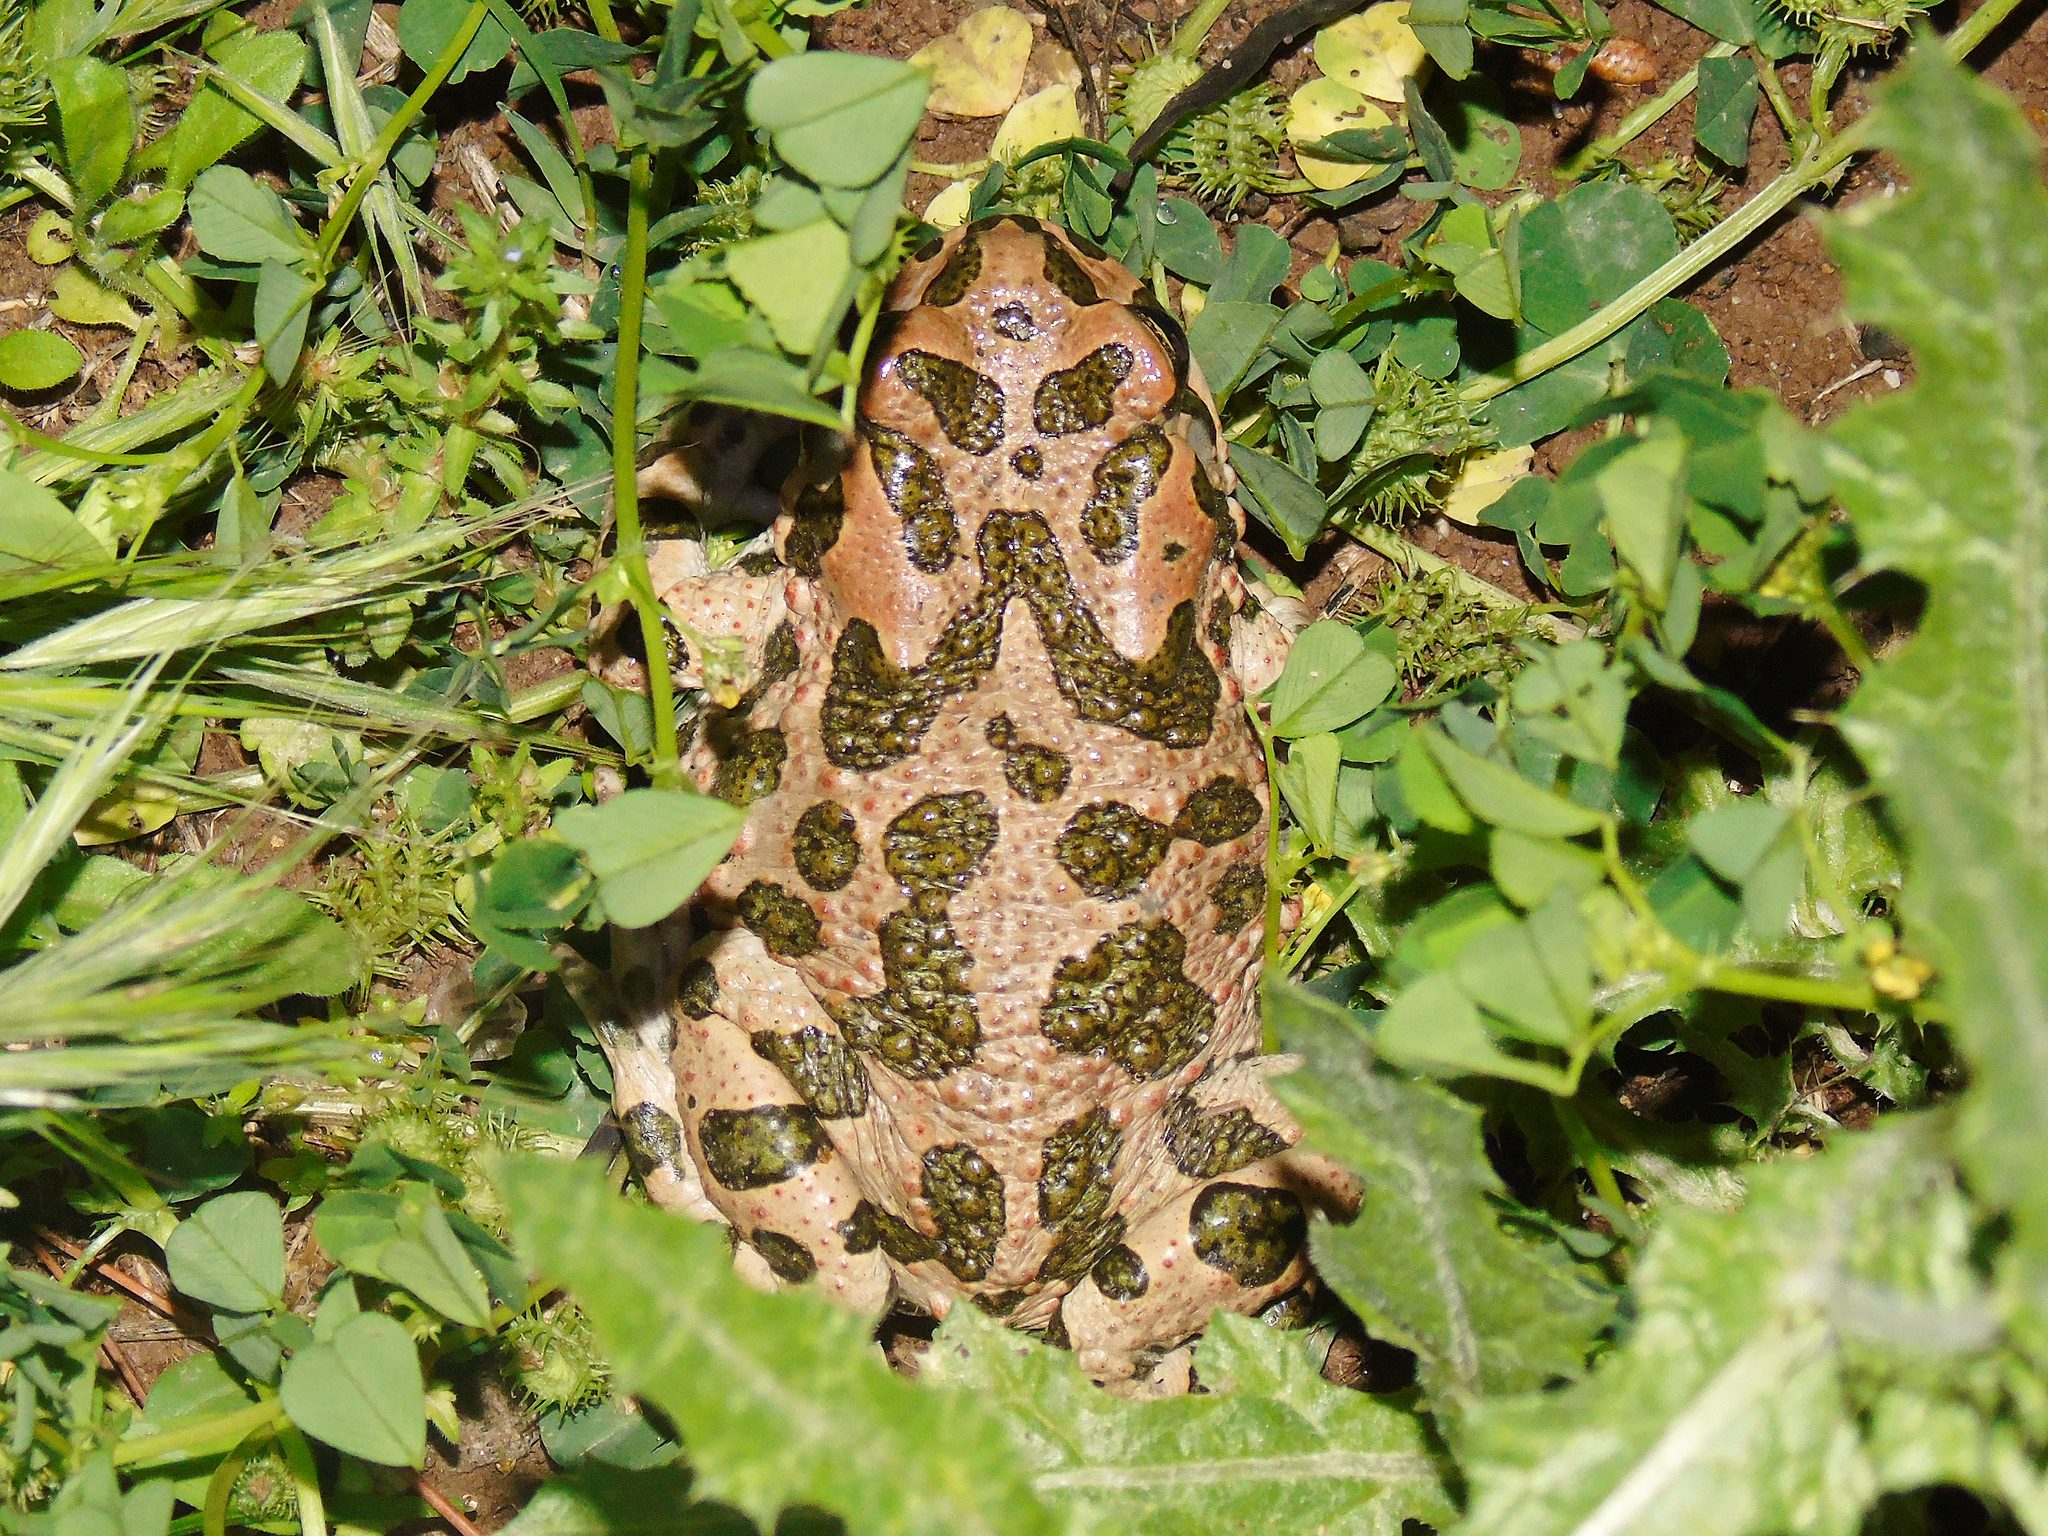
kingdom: Animalia
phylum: Chordata
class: Amphibia
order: Anura
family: Bufonidae
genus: Bufotes
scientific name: Bufotes viridis
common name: European green toad
